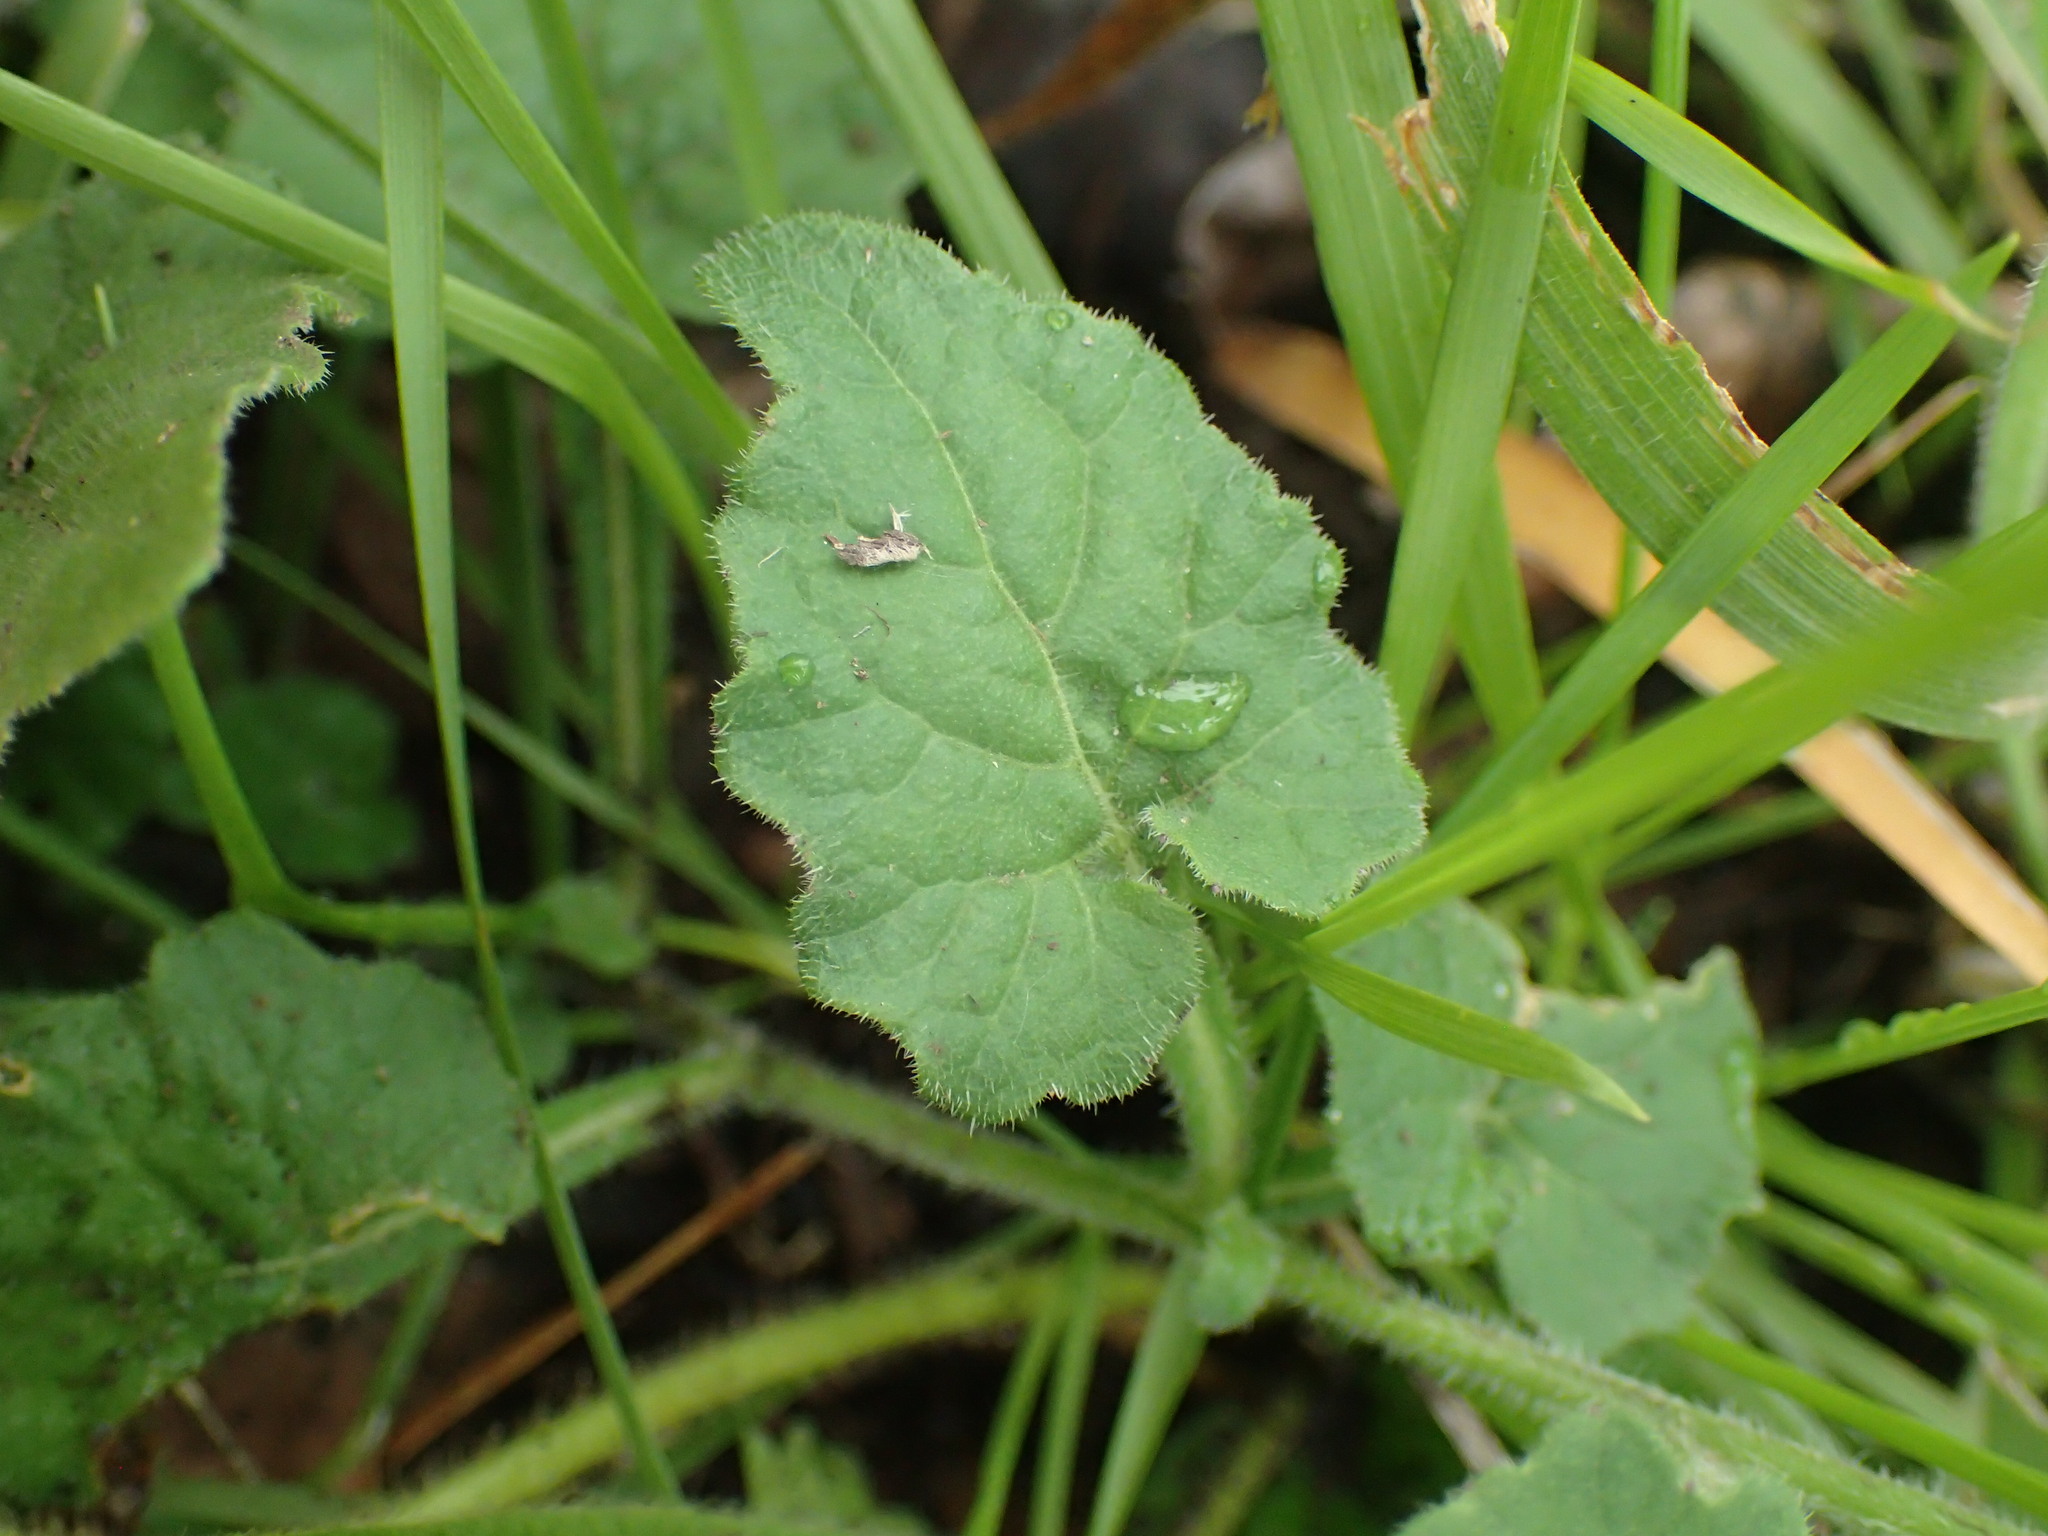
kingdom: Plantae
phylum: Tracheophyta
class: Magnoliopsida
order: Asterales
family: Campanulaceae
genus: Lobelia
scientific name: Lobelia pteropoda
